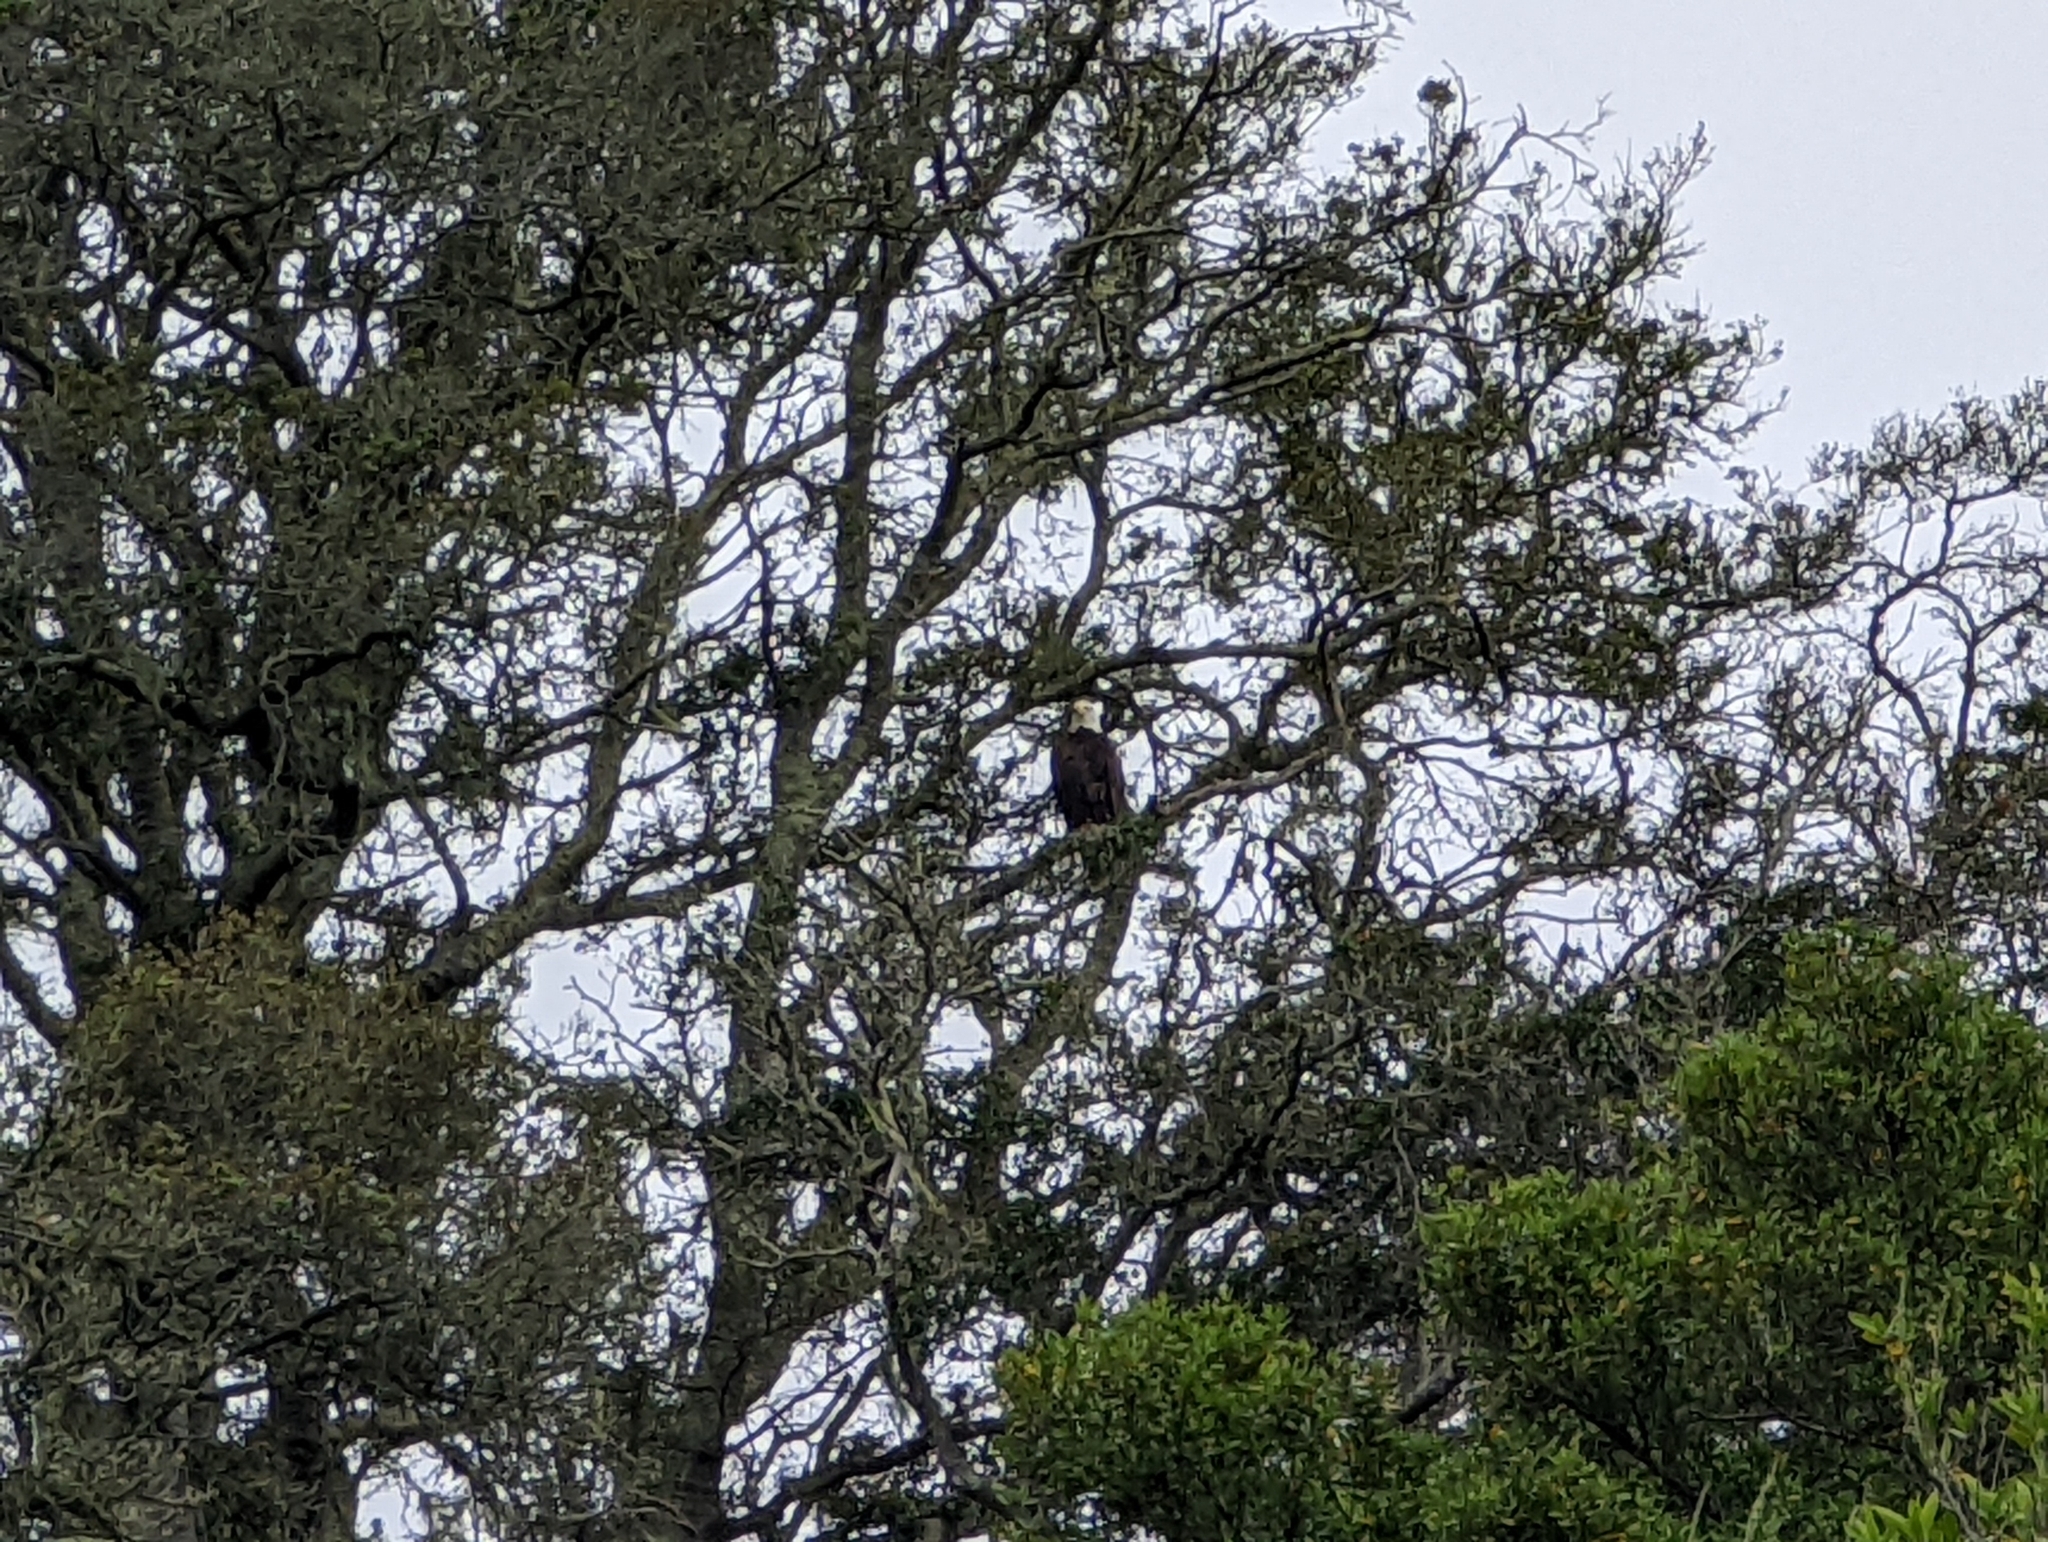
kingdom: Animalia
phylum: Chordata
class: Aves
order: Accipitriformes
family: Accipitridae
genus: Haliaeetus
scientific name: Haliaeetus leucocephalus
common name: Bald eagle
